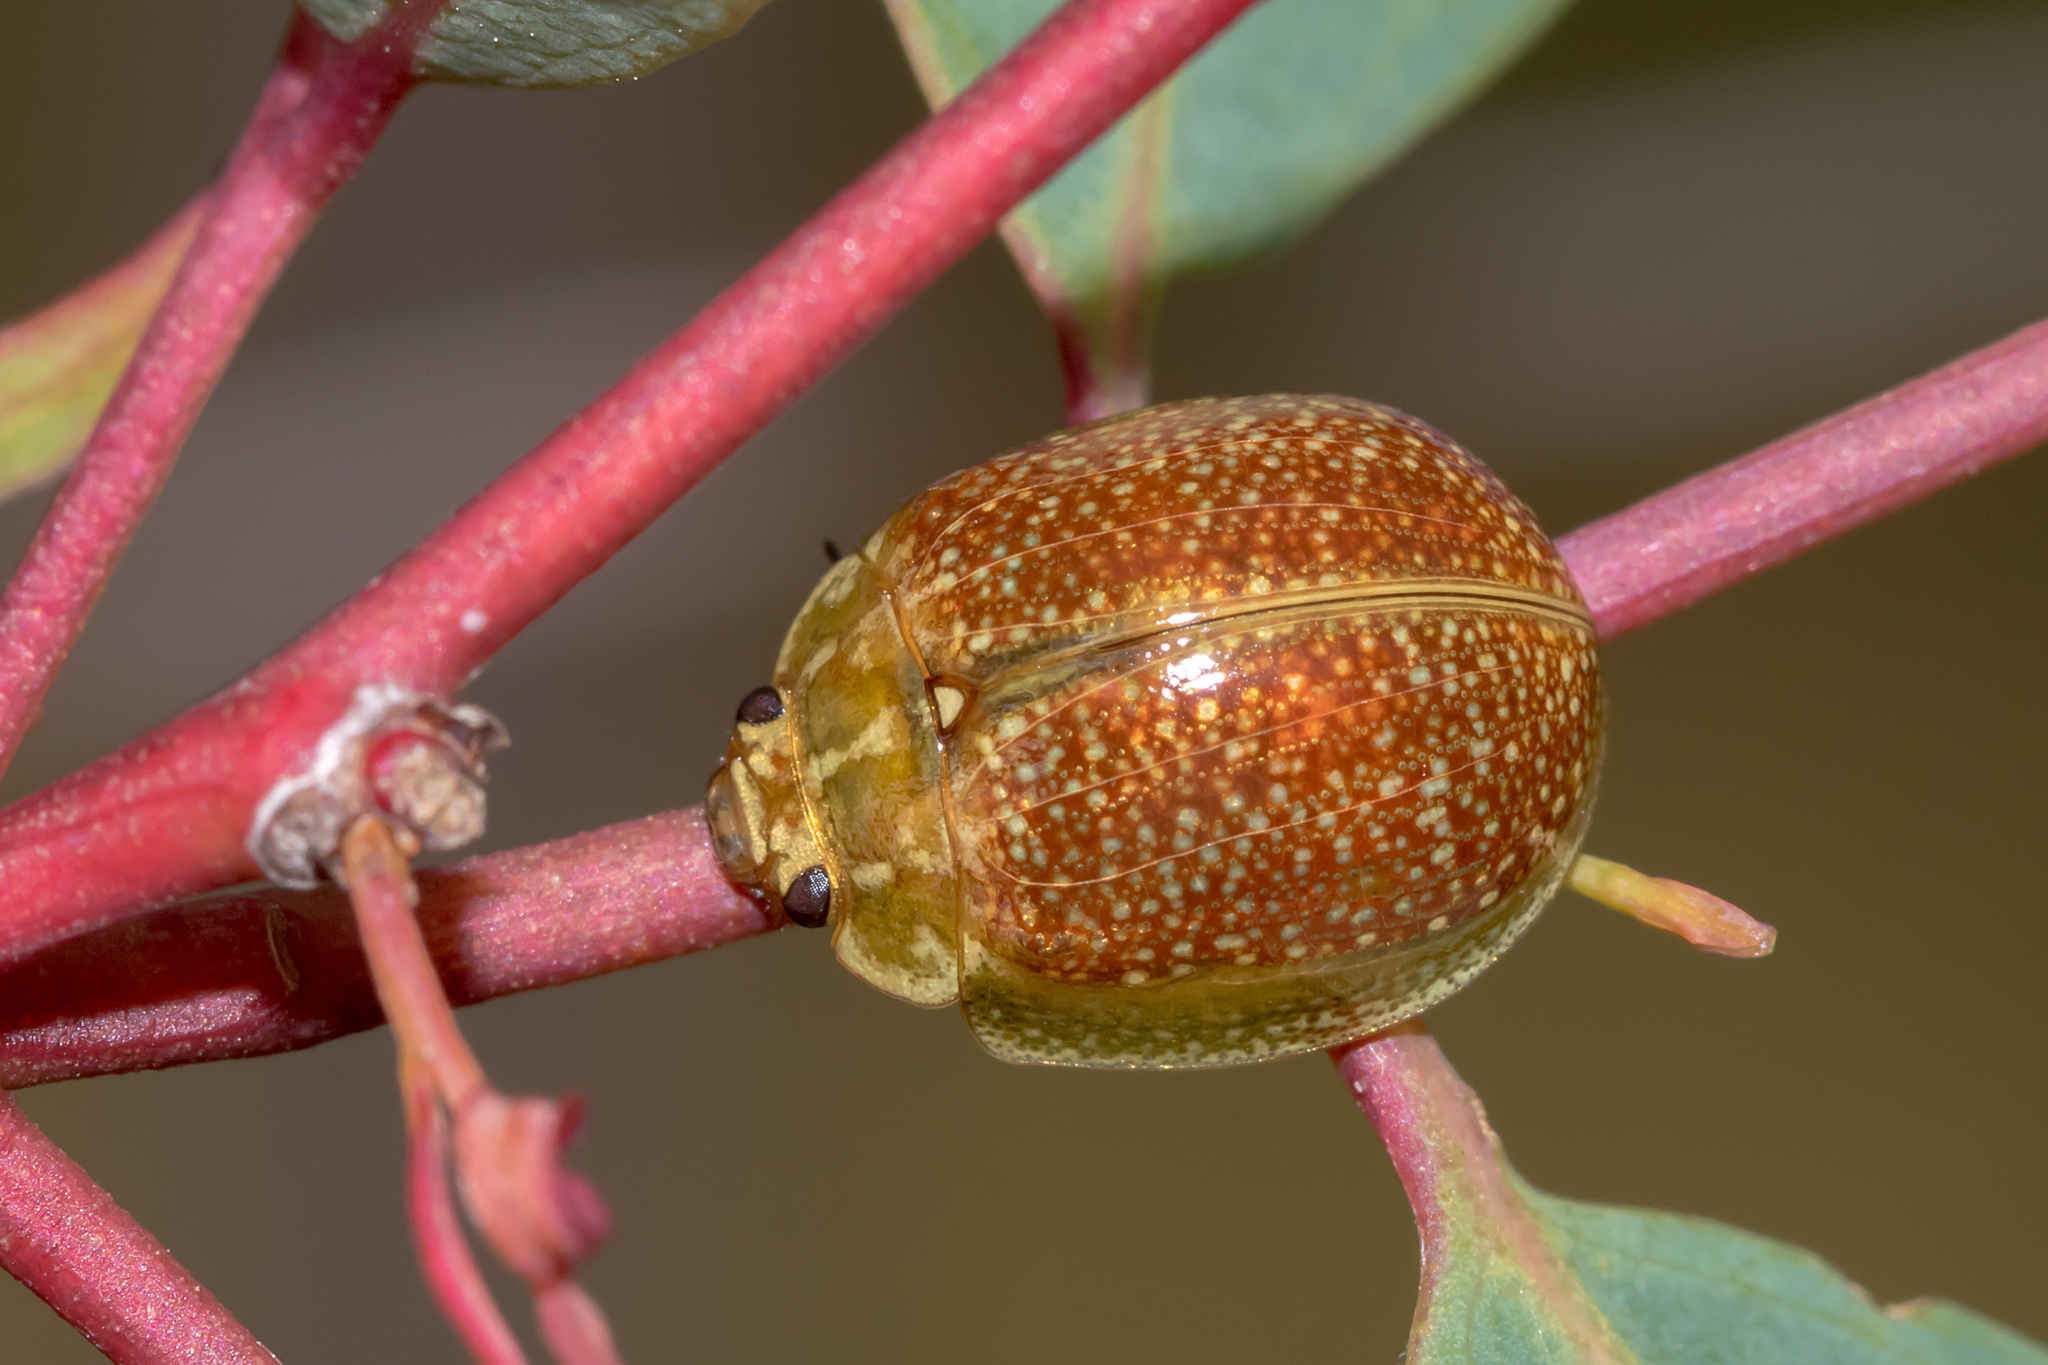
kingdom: Animalia
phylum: Arthropoda
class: Insecta
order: Coleoptera
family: Chrysomelidae
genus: Paropsisterna
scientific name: Paropsisterna cloelia
